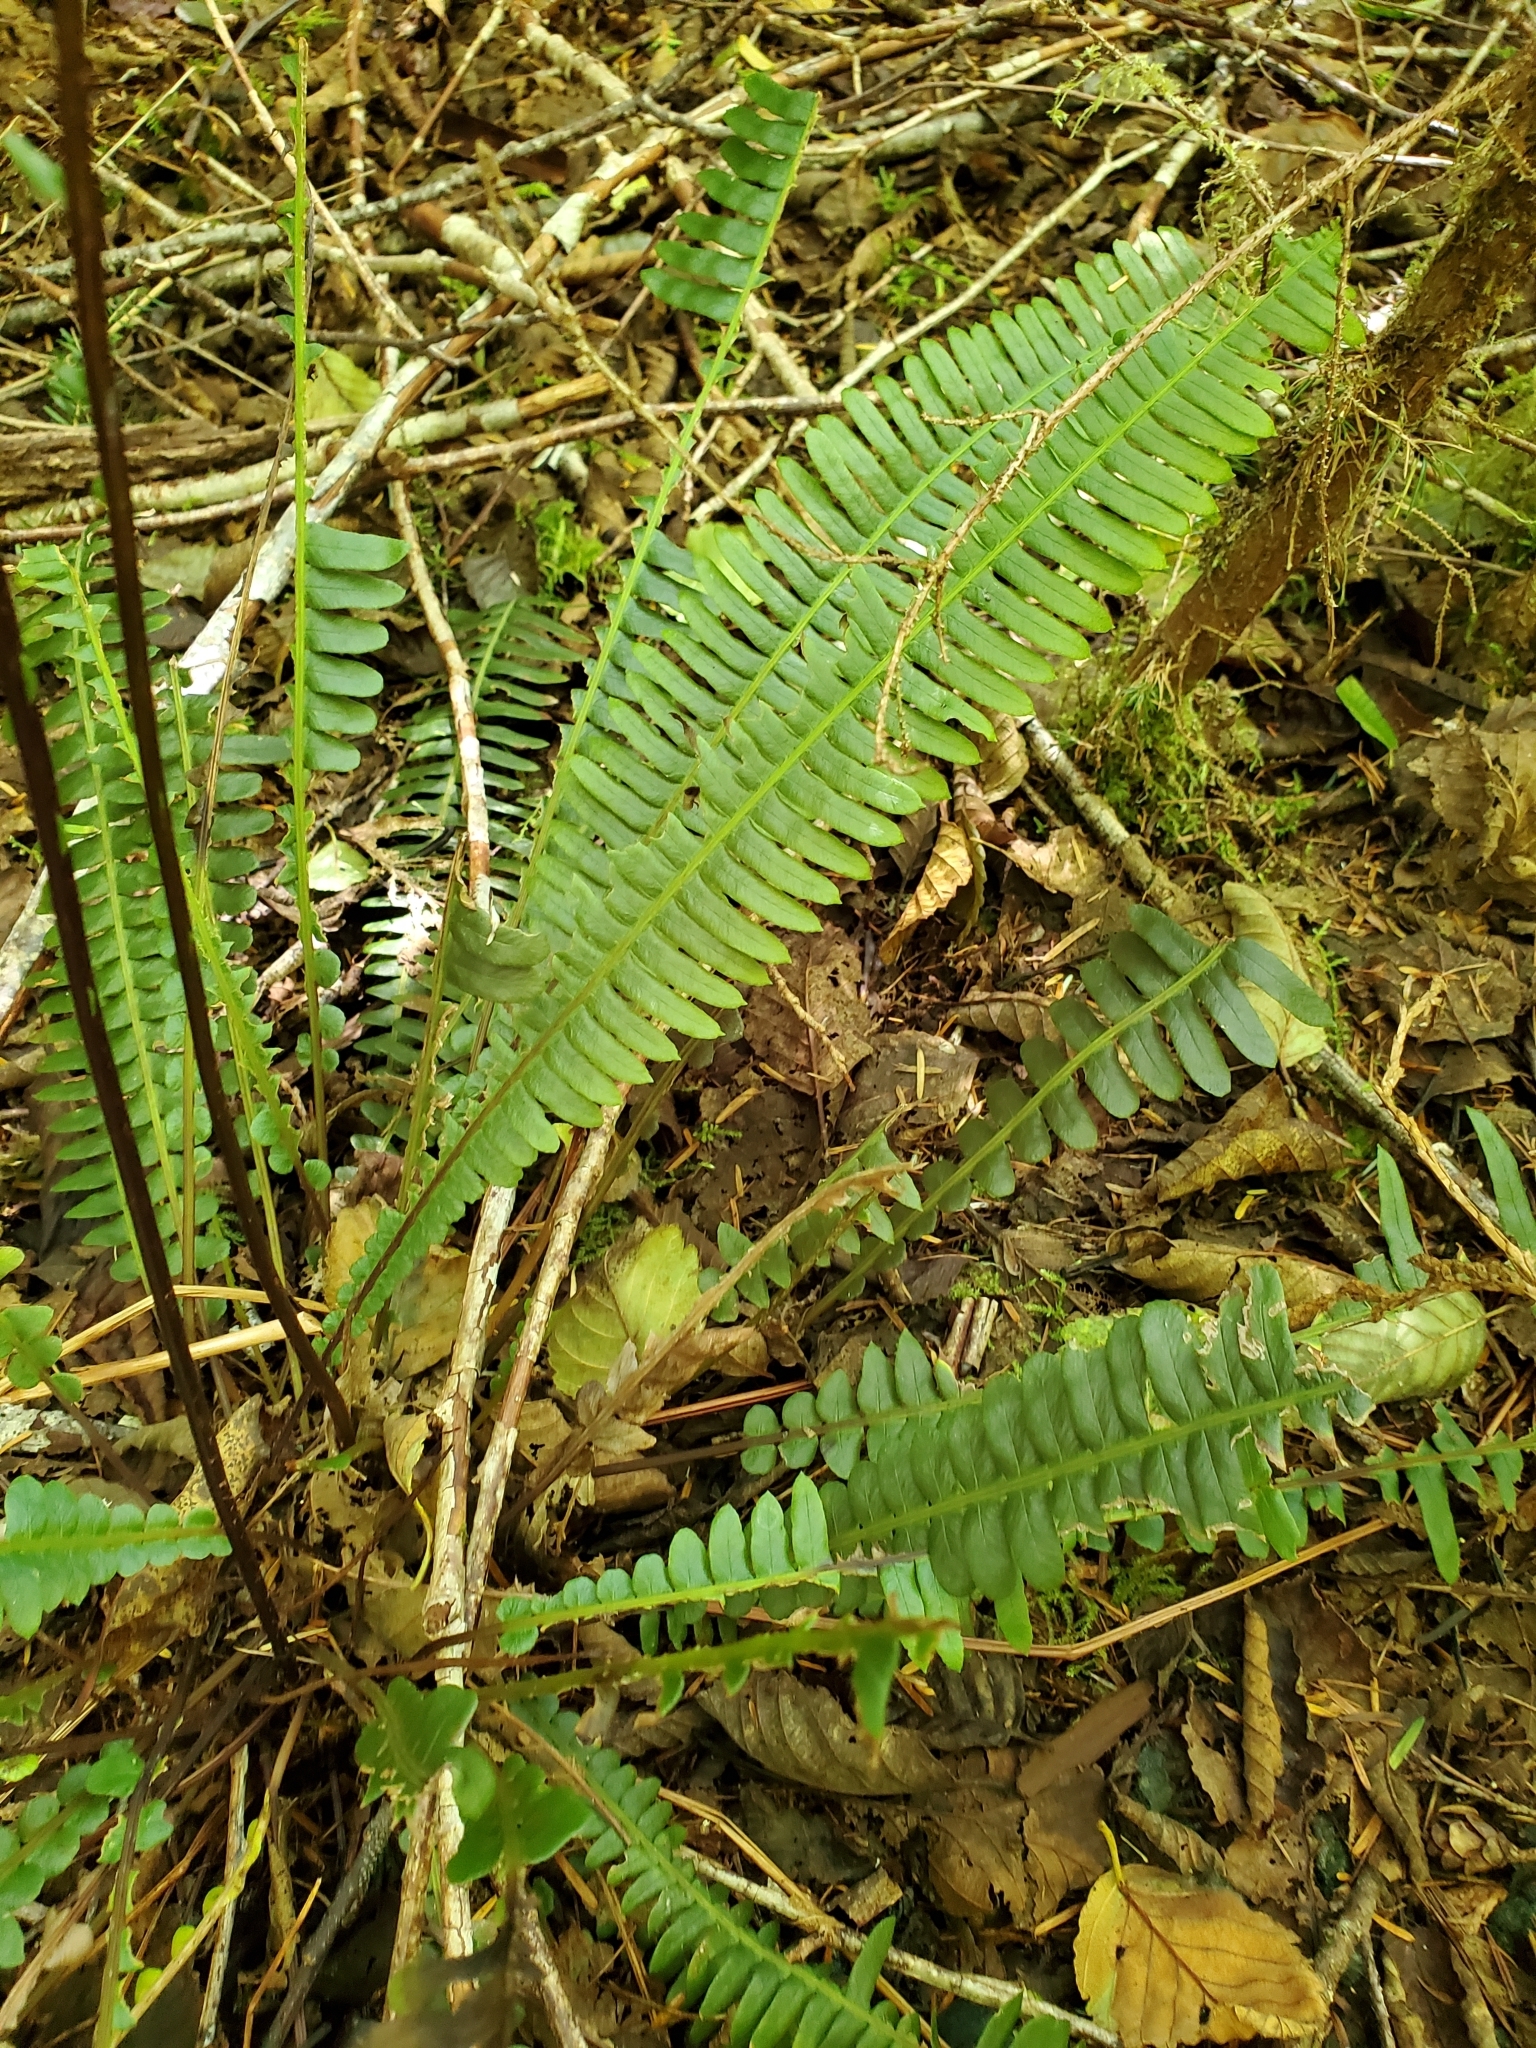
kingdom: Plantae
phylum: Tracheophyta
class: Polypodiopsida
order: Polypodiales
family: Blechnaceae
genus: Struthiopteris
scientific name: Struthiopteris spicant
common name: Deer fern
